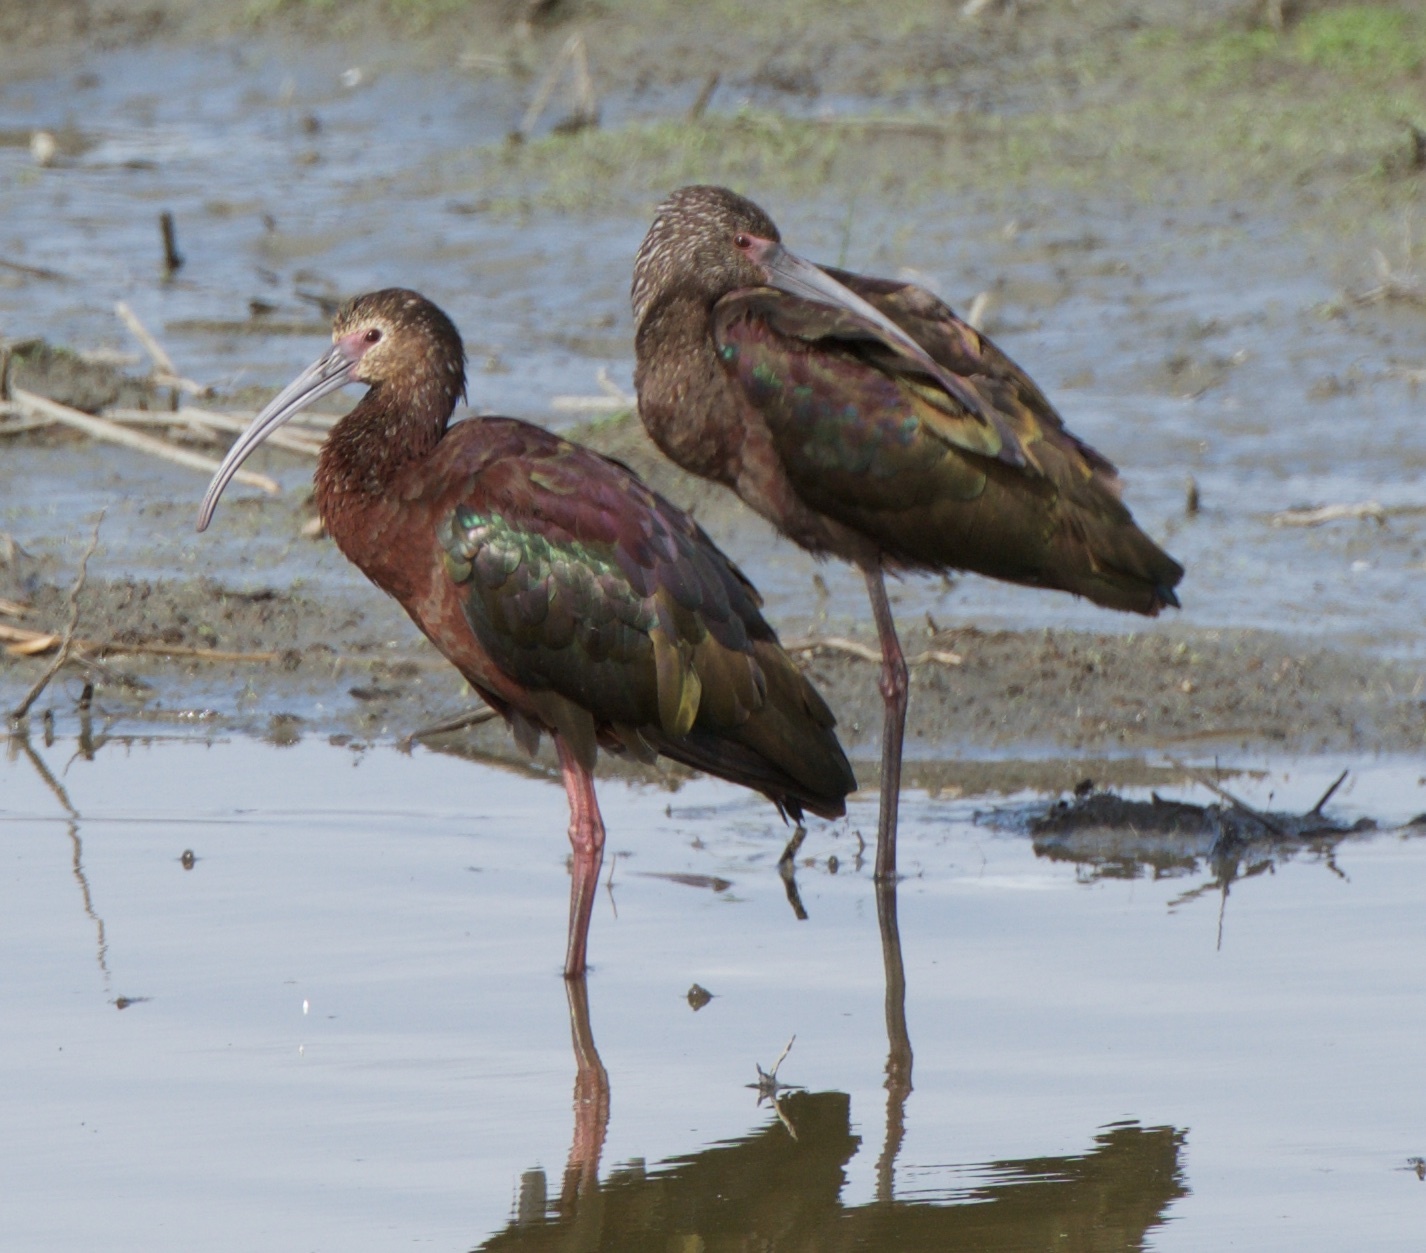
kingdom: Animalia
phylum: Chordata
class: Aves
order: Pelecaniformes
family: Threskiornithidae
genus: Plegadis
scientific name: Plegadis chihi
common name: White-faced ibis
